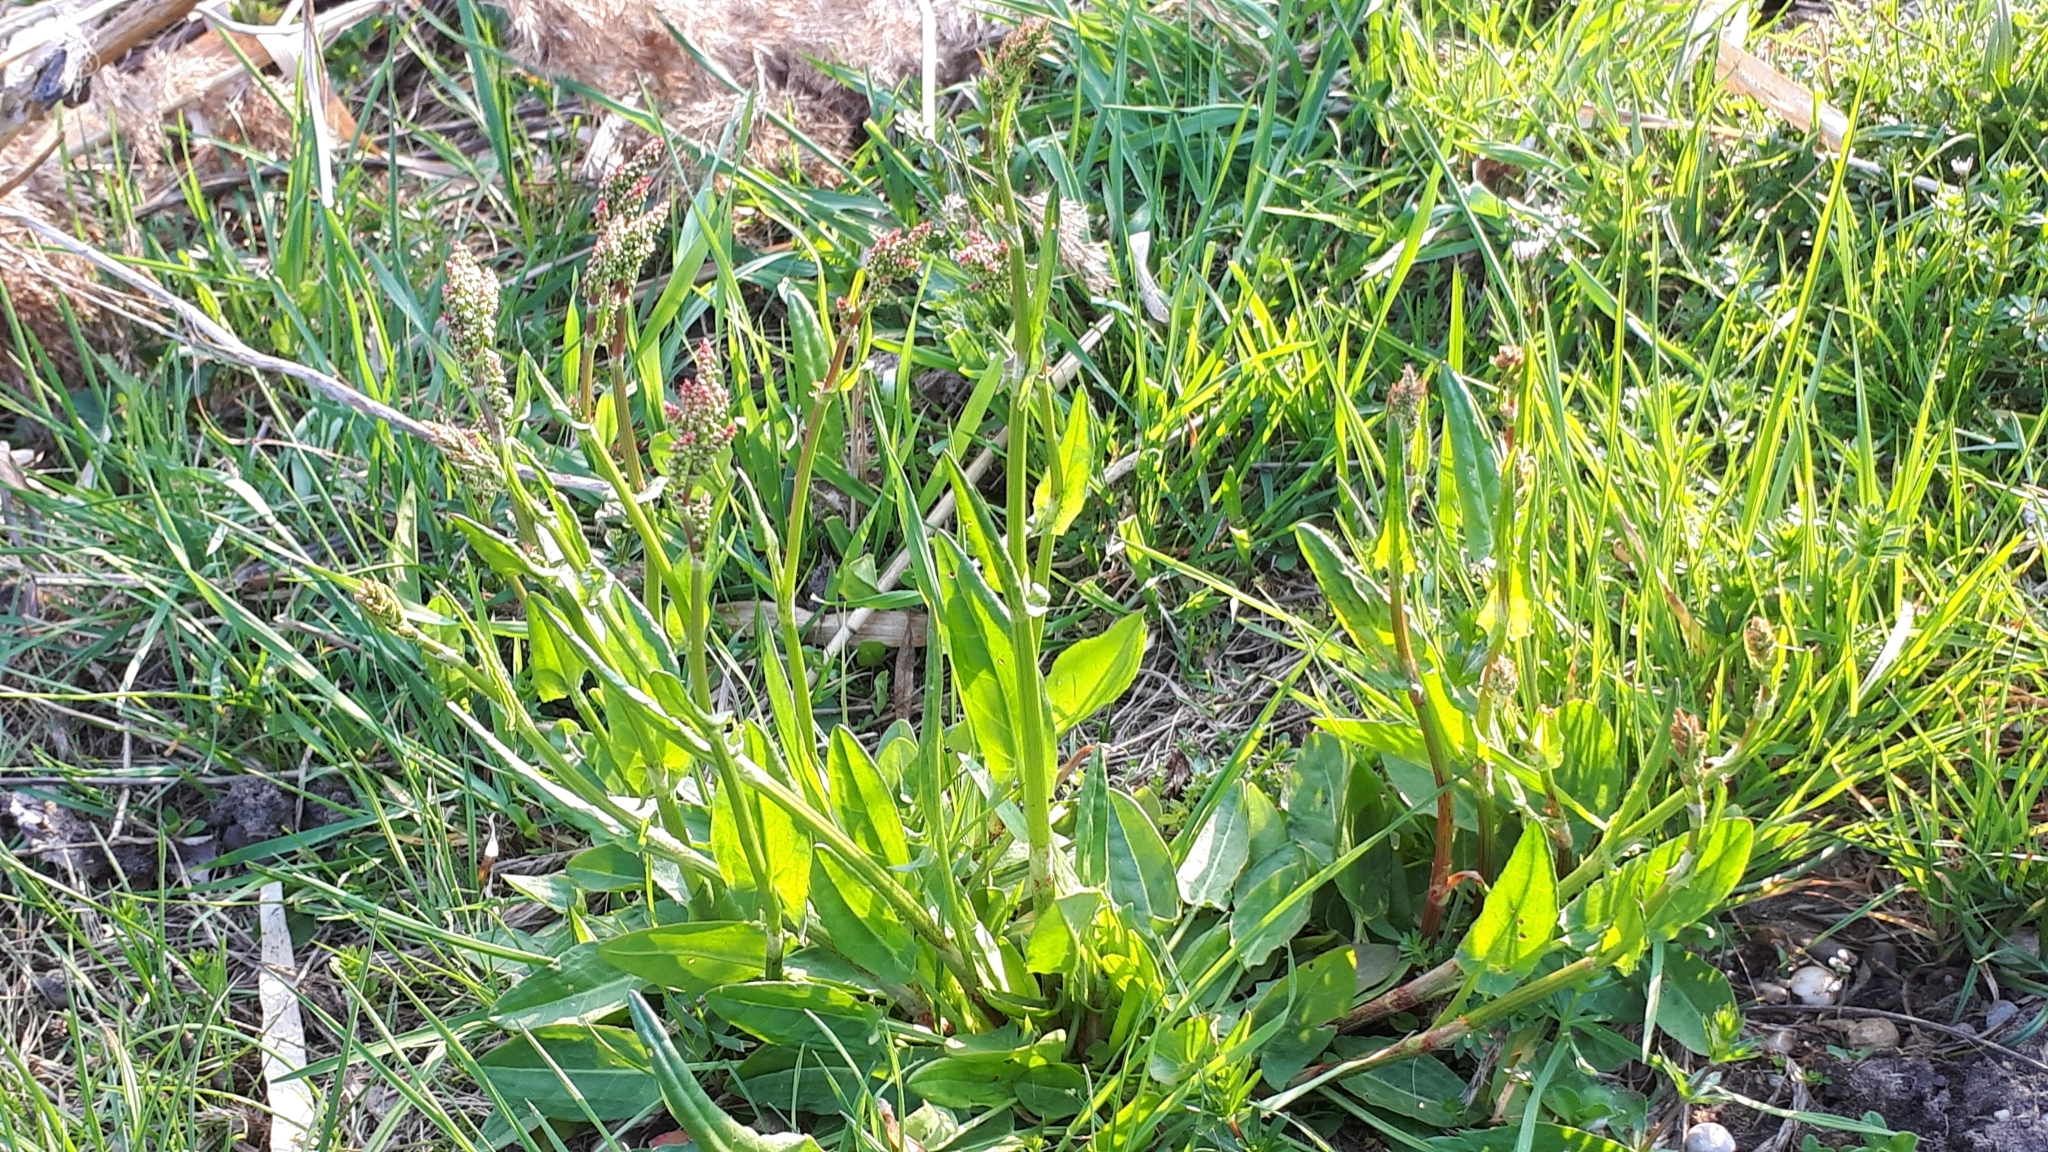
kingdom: Plantae
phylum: Tracheophyta
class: Magnoliopsida
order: Caryophyllales
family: Polygonaceae
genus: Rumex
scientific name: Rumex acetosa
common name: Garden sorrel
